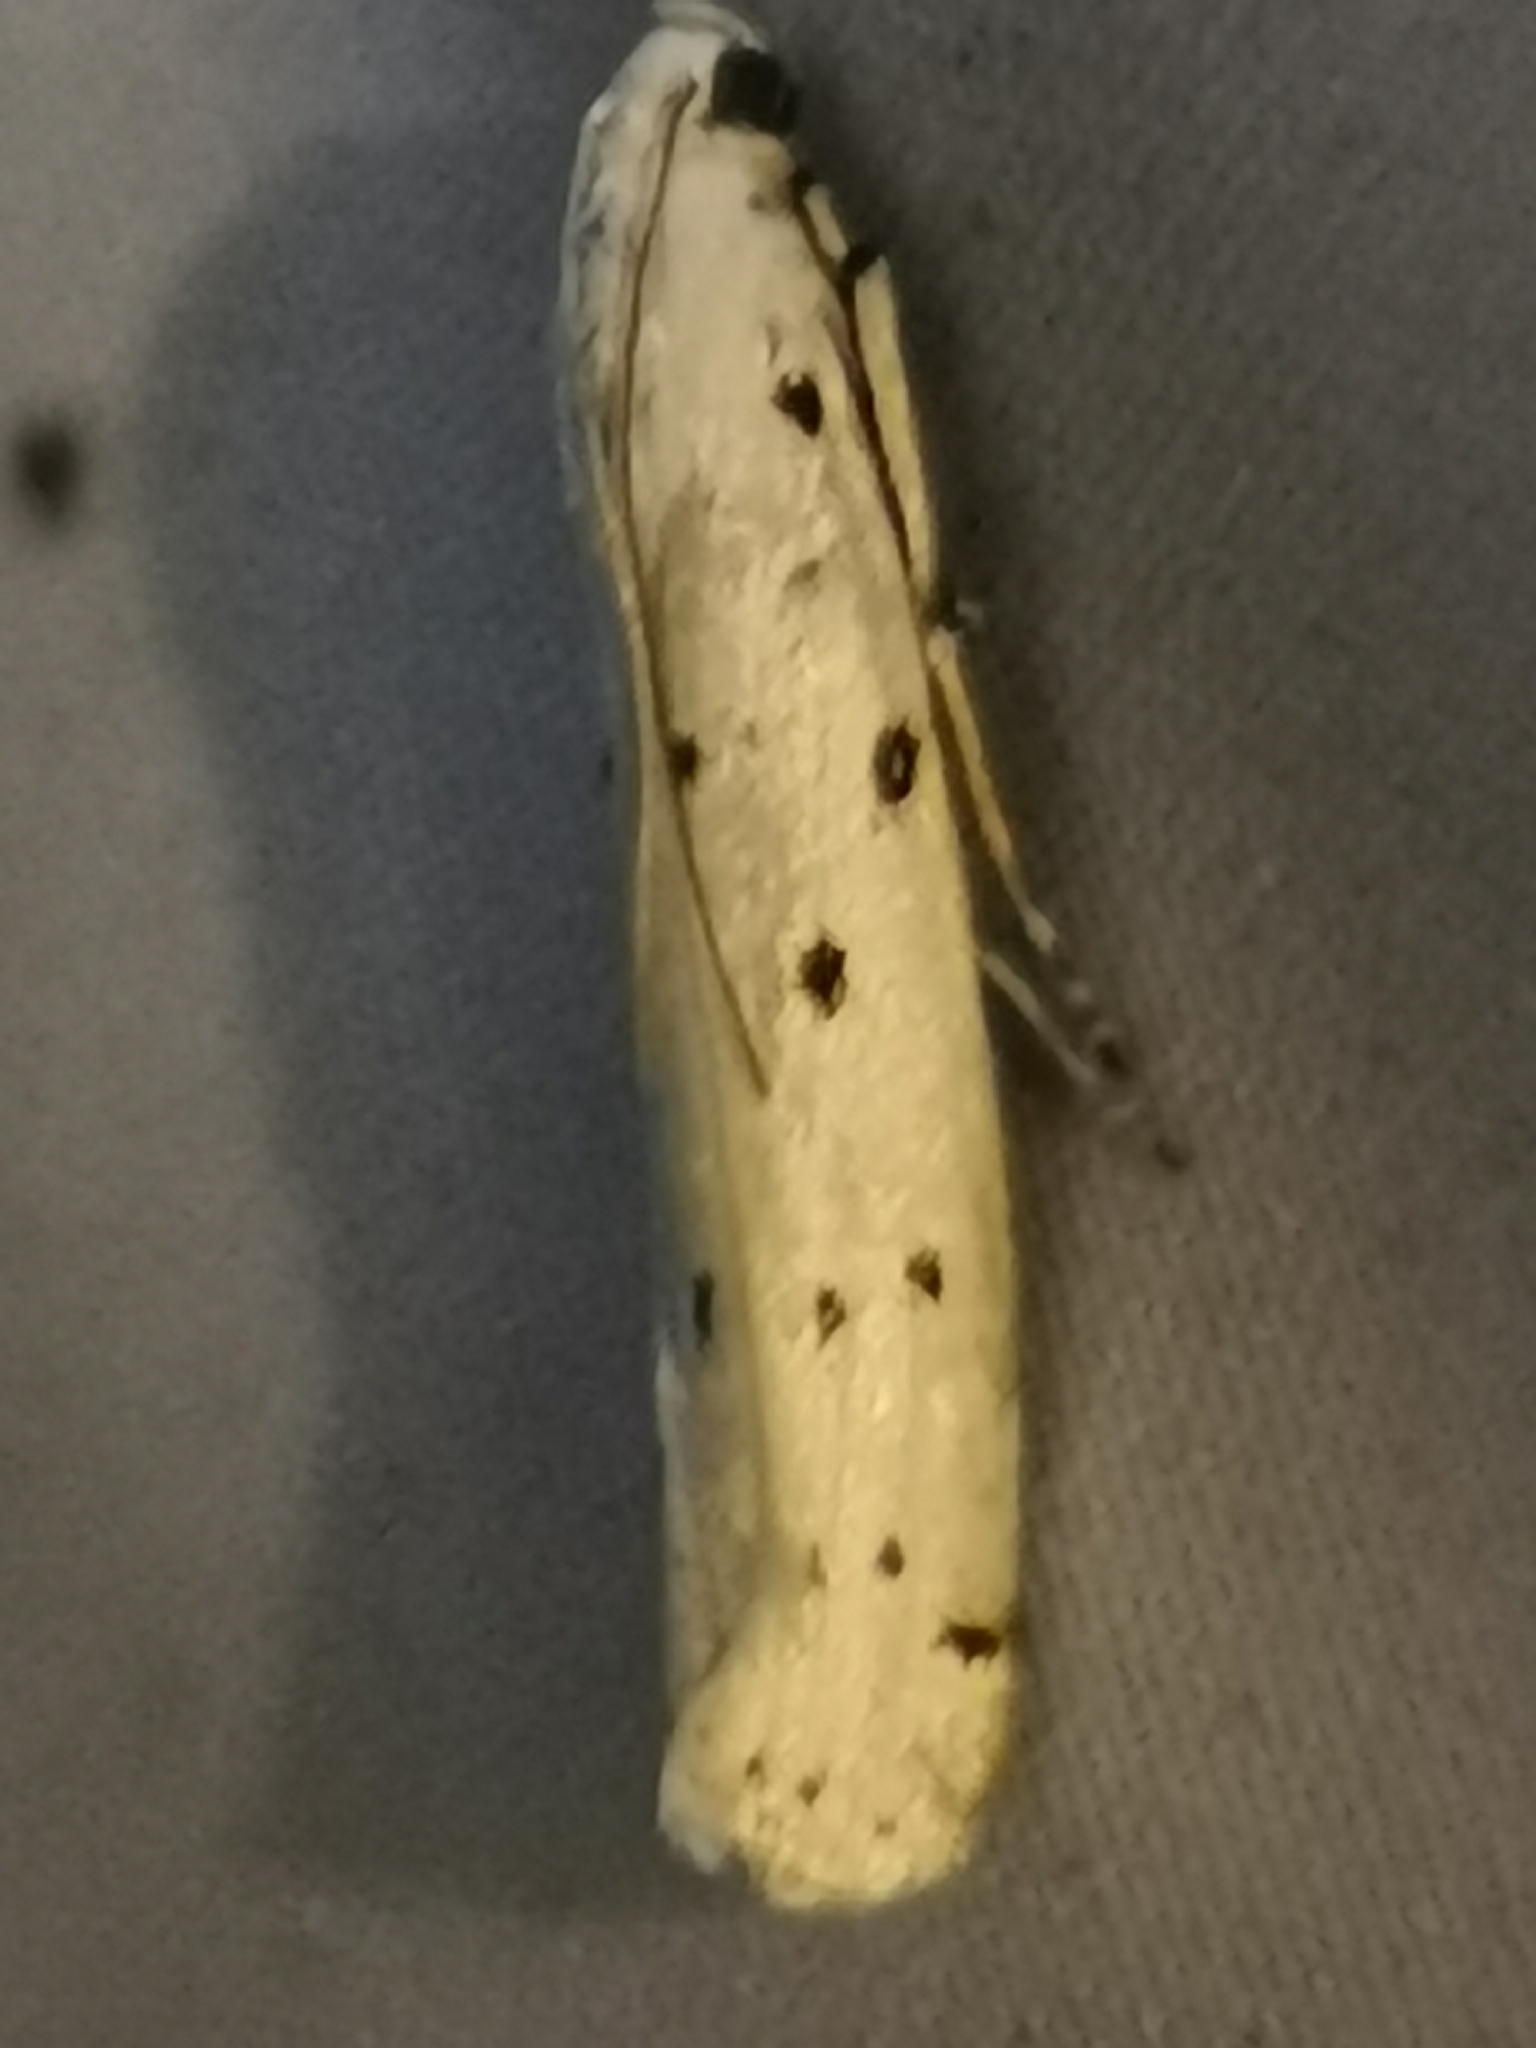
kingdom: Animalia
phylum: Arthropoda
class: Insecta
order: Lepidoptera
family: Pyralidae
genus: Myelois
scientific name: Myelois circumvoluta
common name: Thistle ermine
